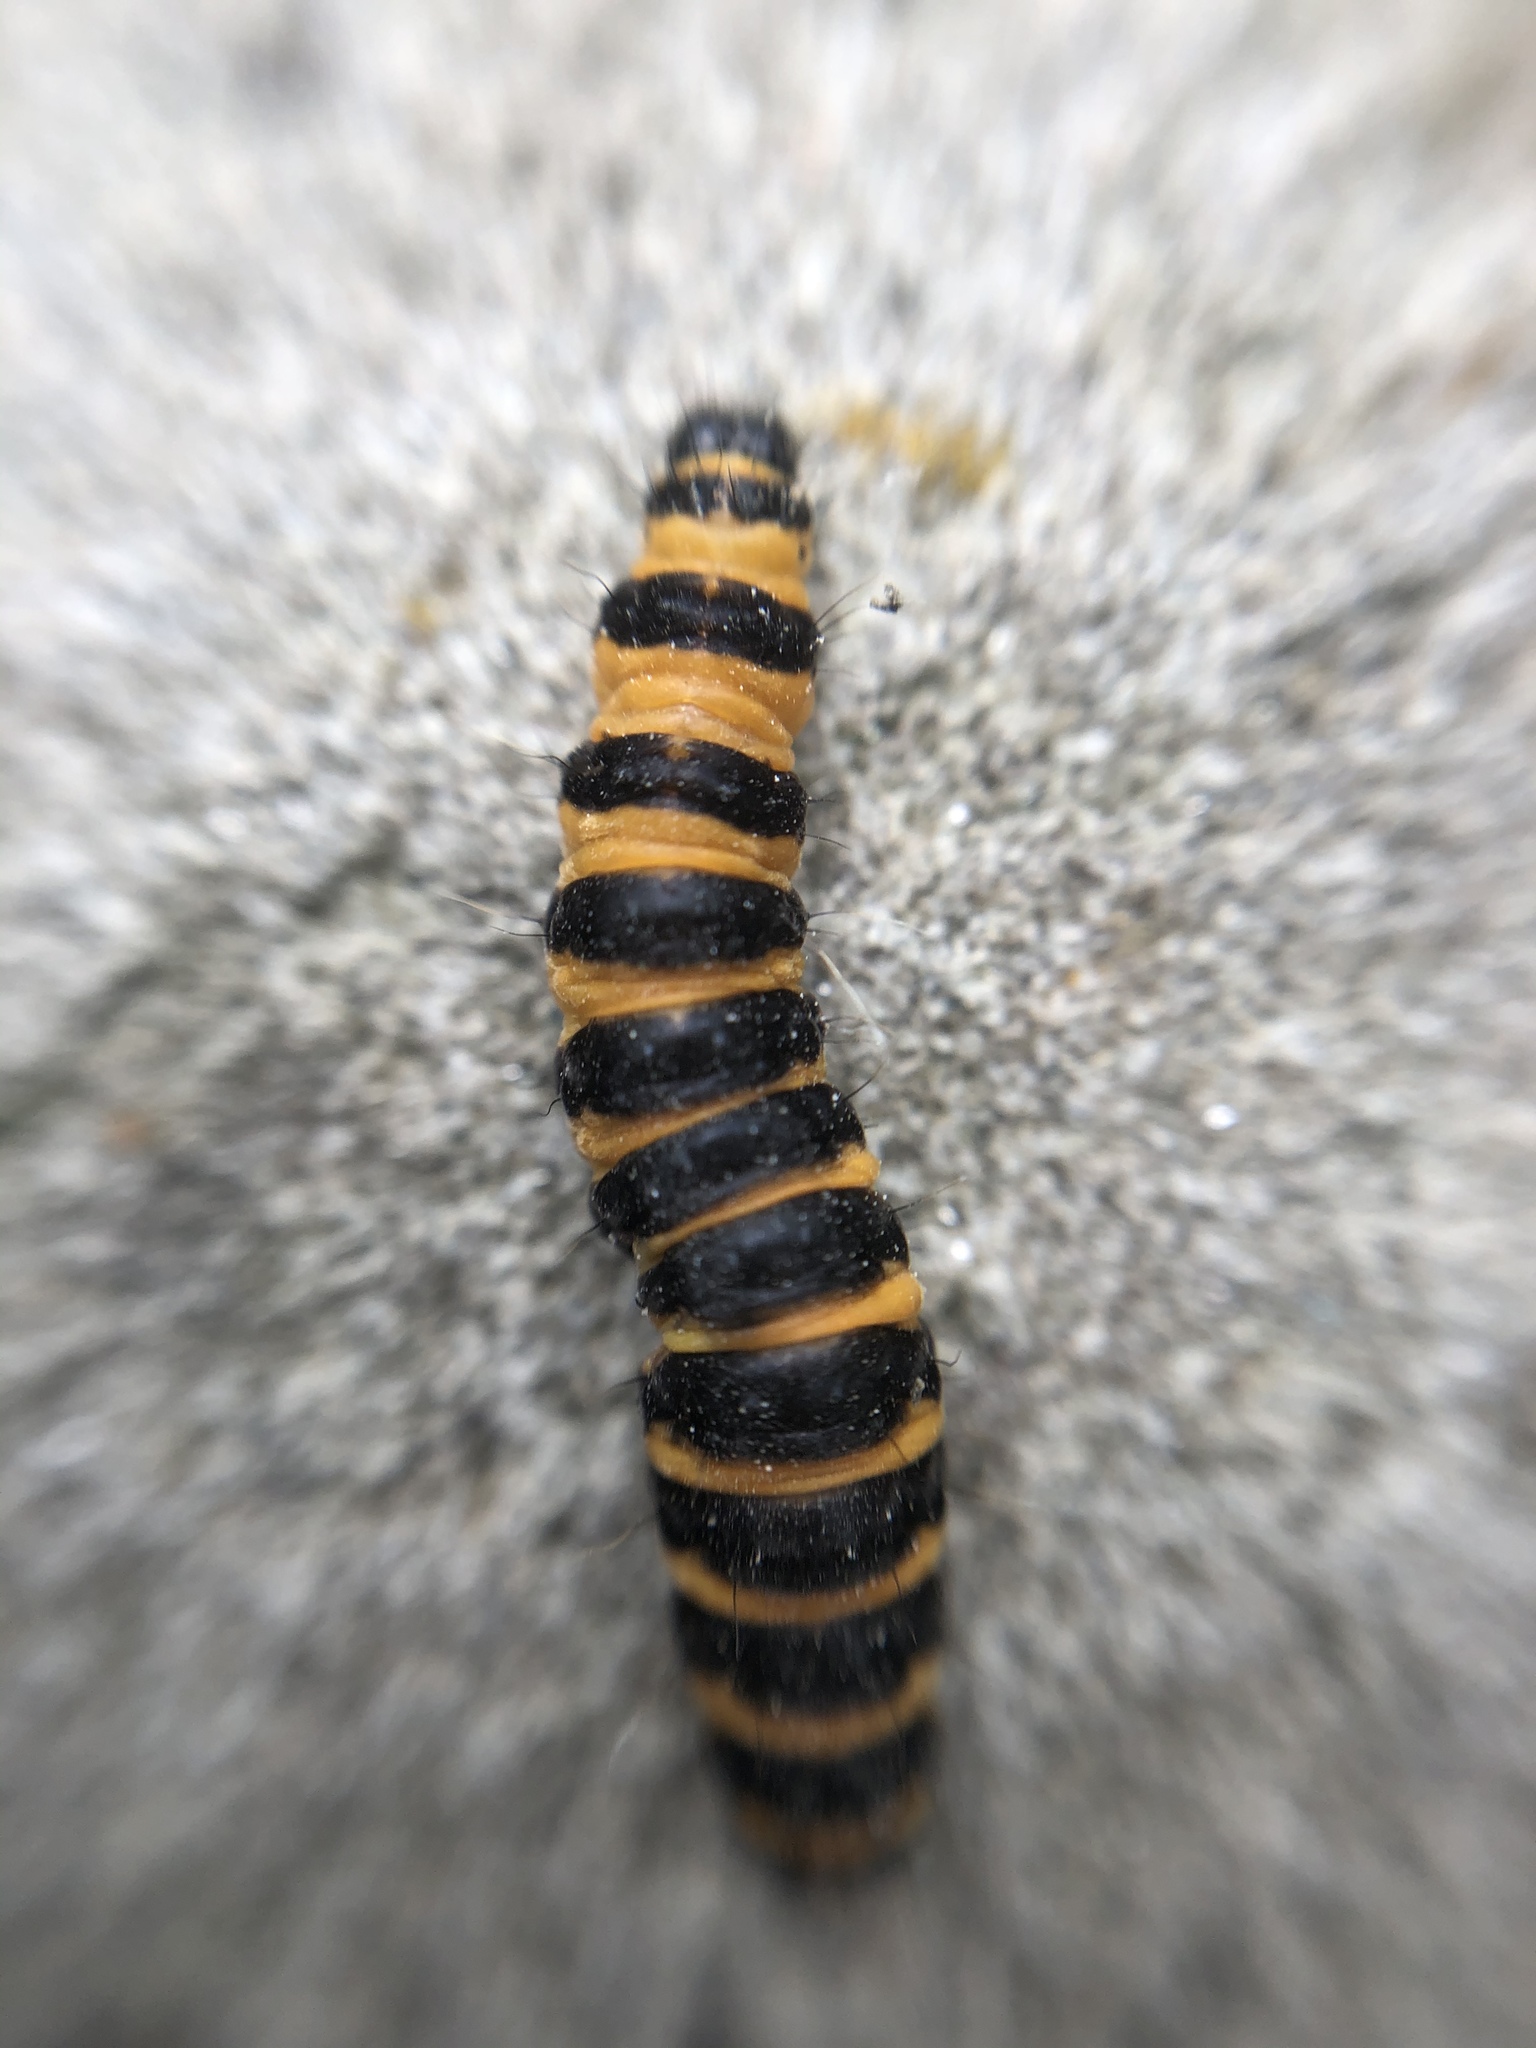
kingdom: Animalia
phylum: Arthropoda
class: Insecta
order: Lepidoptera
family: Erebidae
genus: Tyria
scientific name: Tyria jacobaeae
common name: Cinnabar
